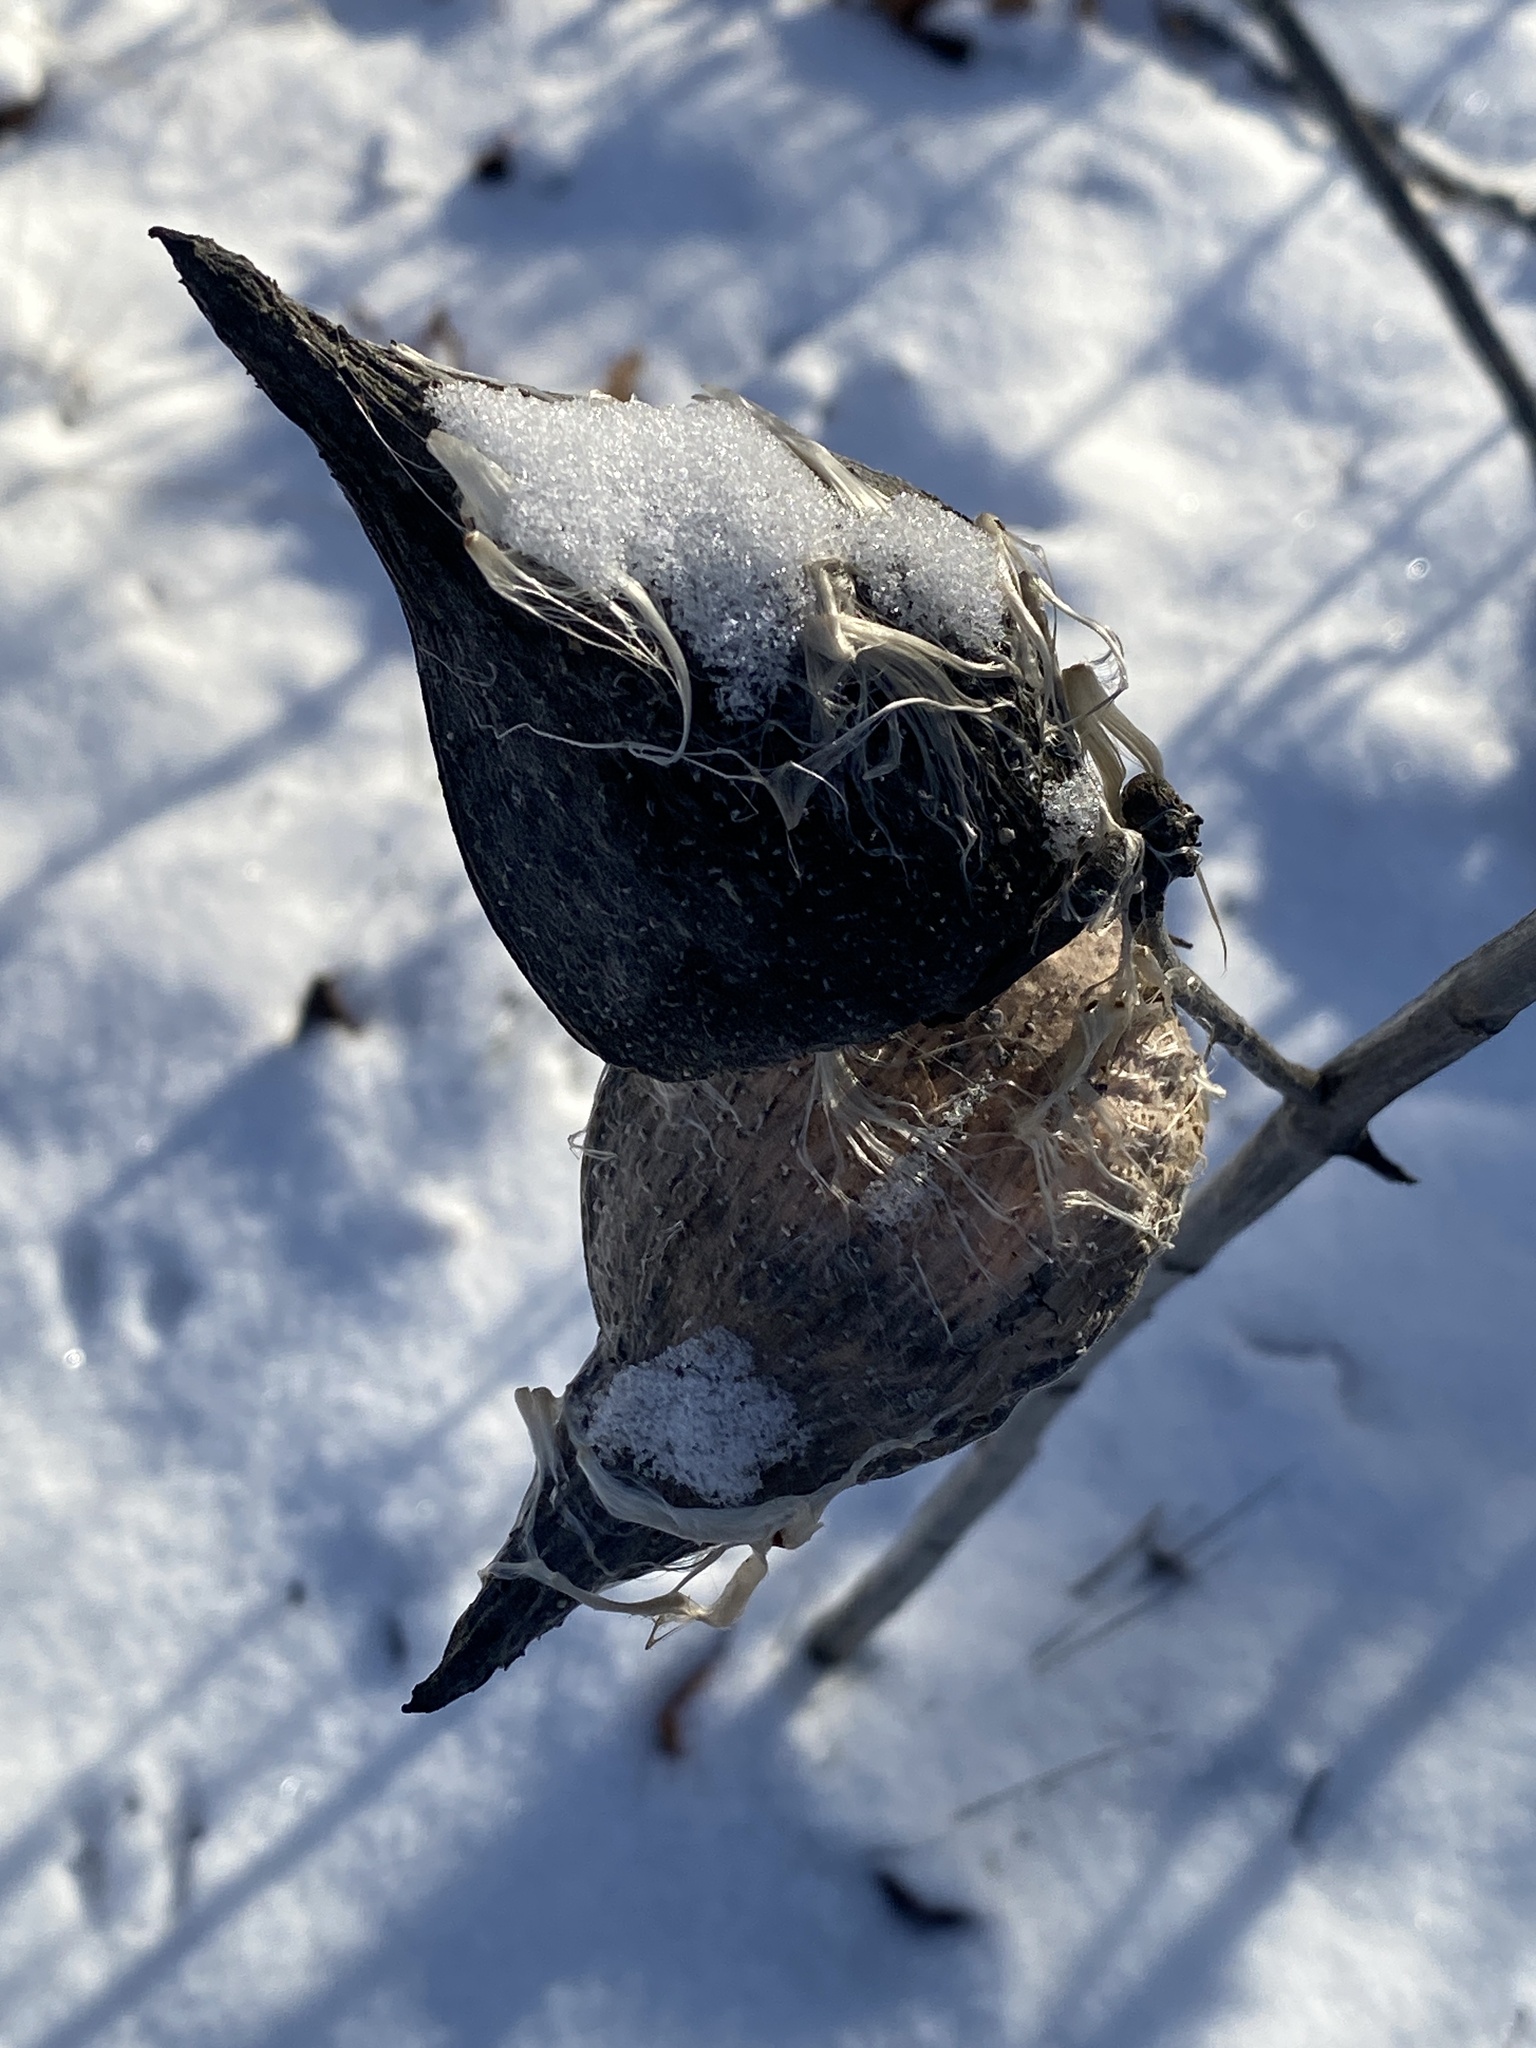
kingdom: Plantae
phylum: Tracheophyta
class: Magnoliopsida
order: Gentianales
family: Apocynaceae
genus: Asclepias
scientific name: Asclepias syriaca
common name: Common milkweed
